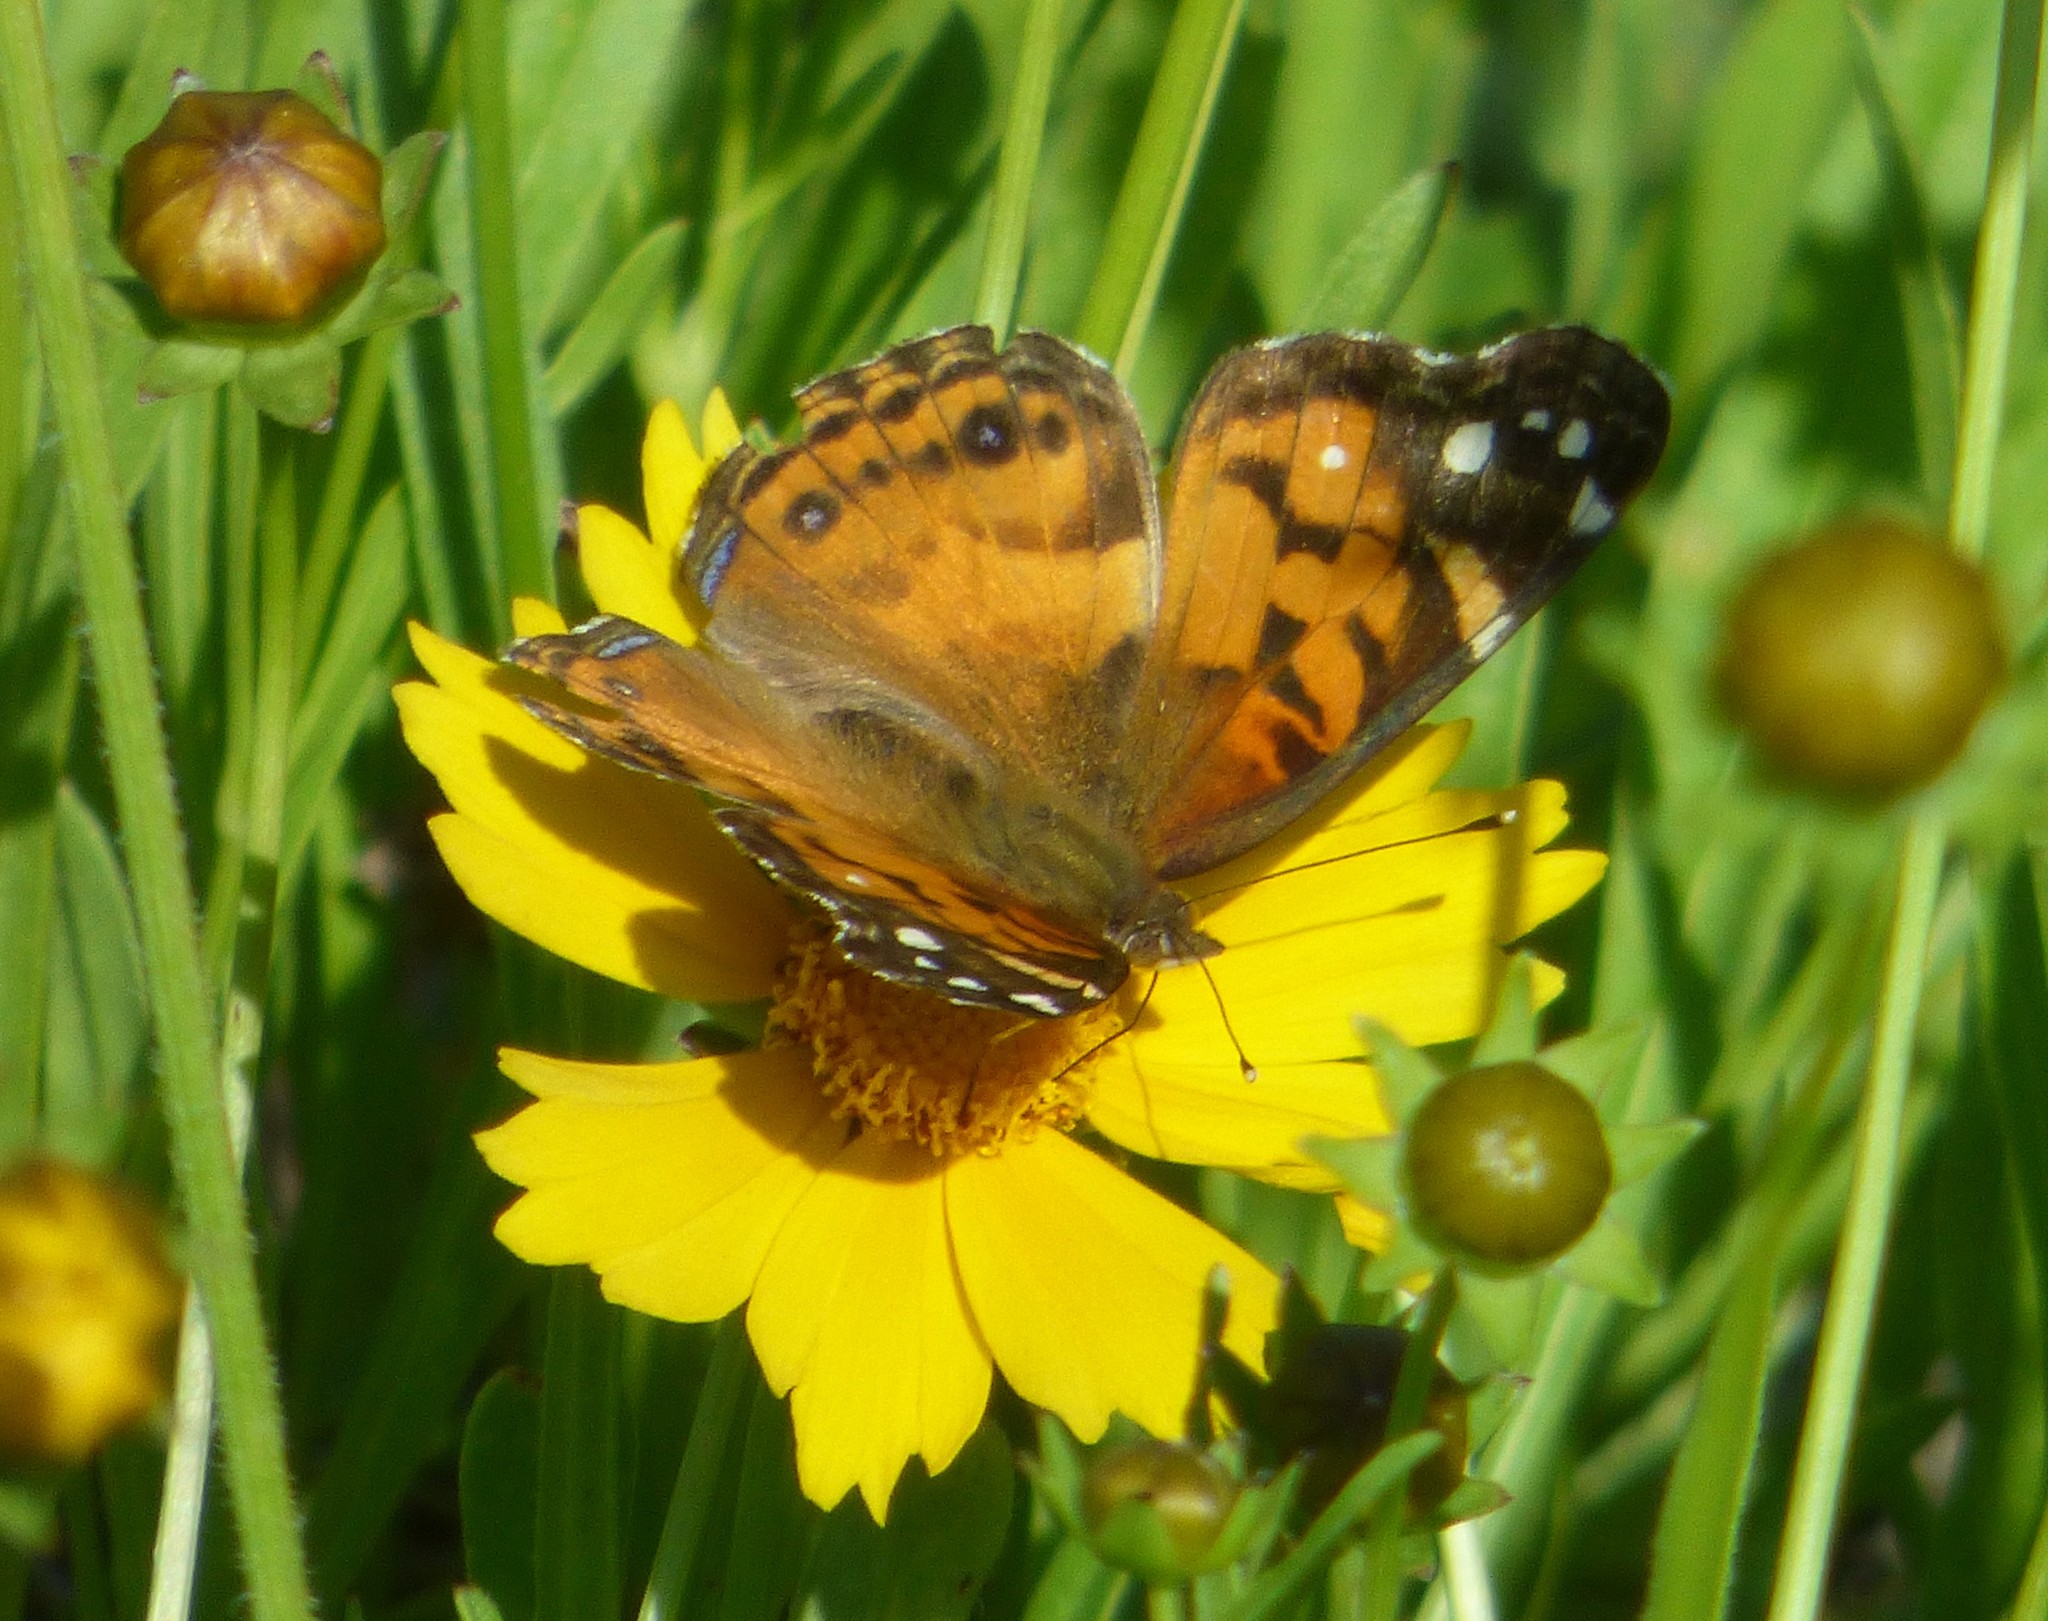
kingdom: Animalia
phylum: Arthropoda
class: Insecta
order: Lepidoptera
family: Nymphalidae
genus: Vanessa
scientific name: Vanessa virginiensis
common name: American lady
